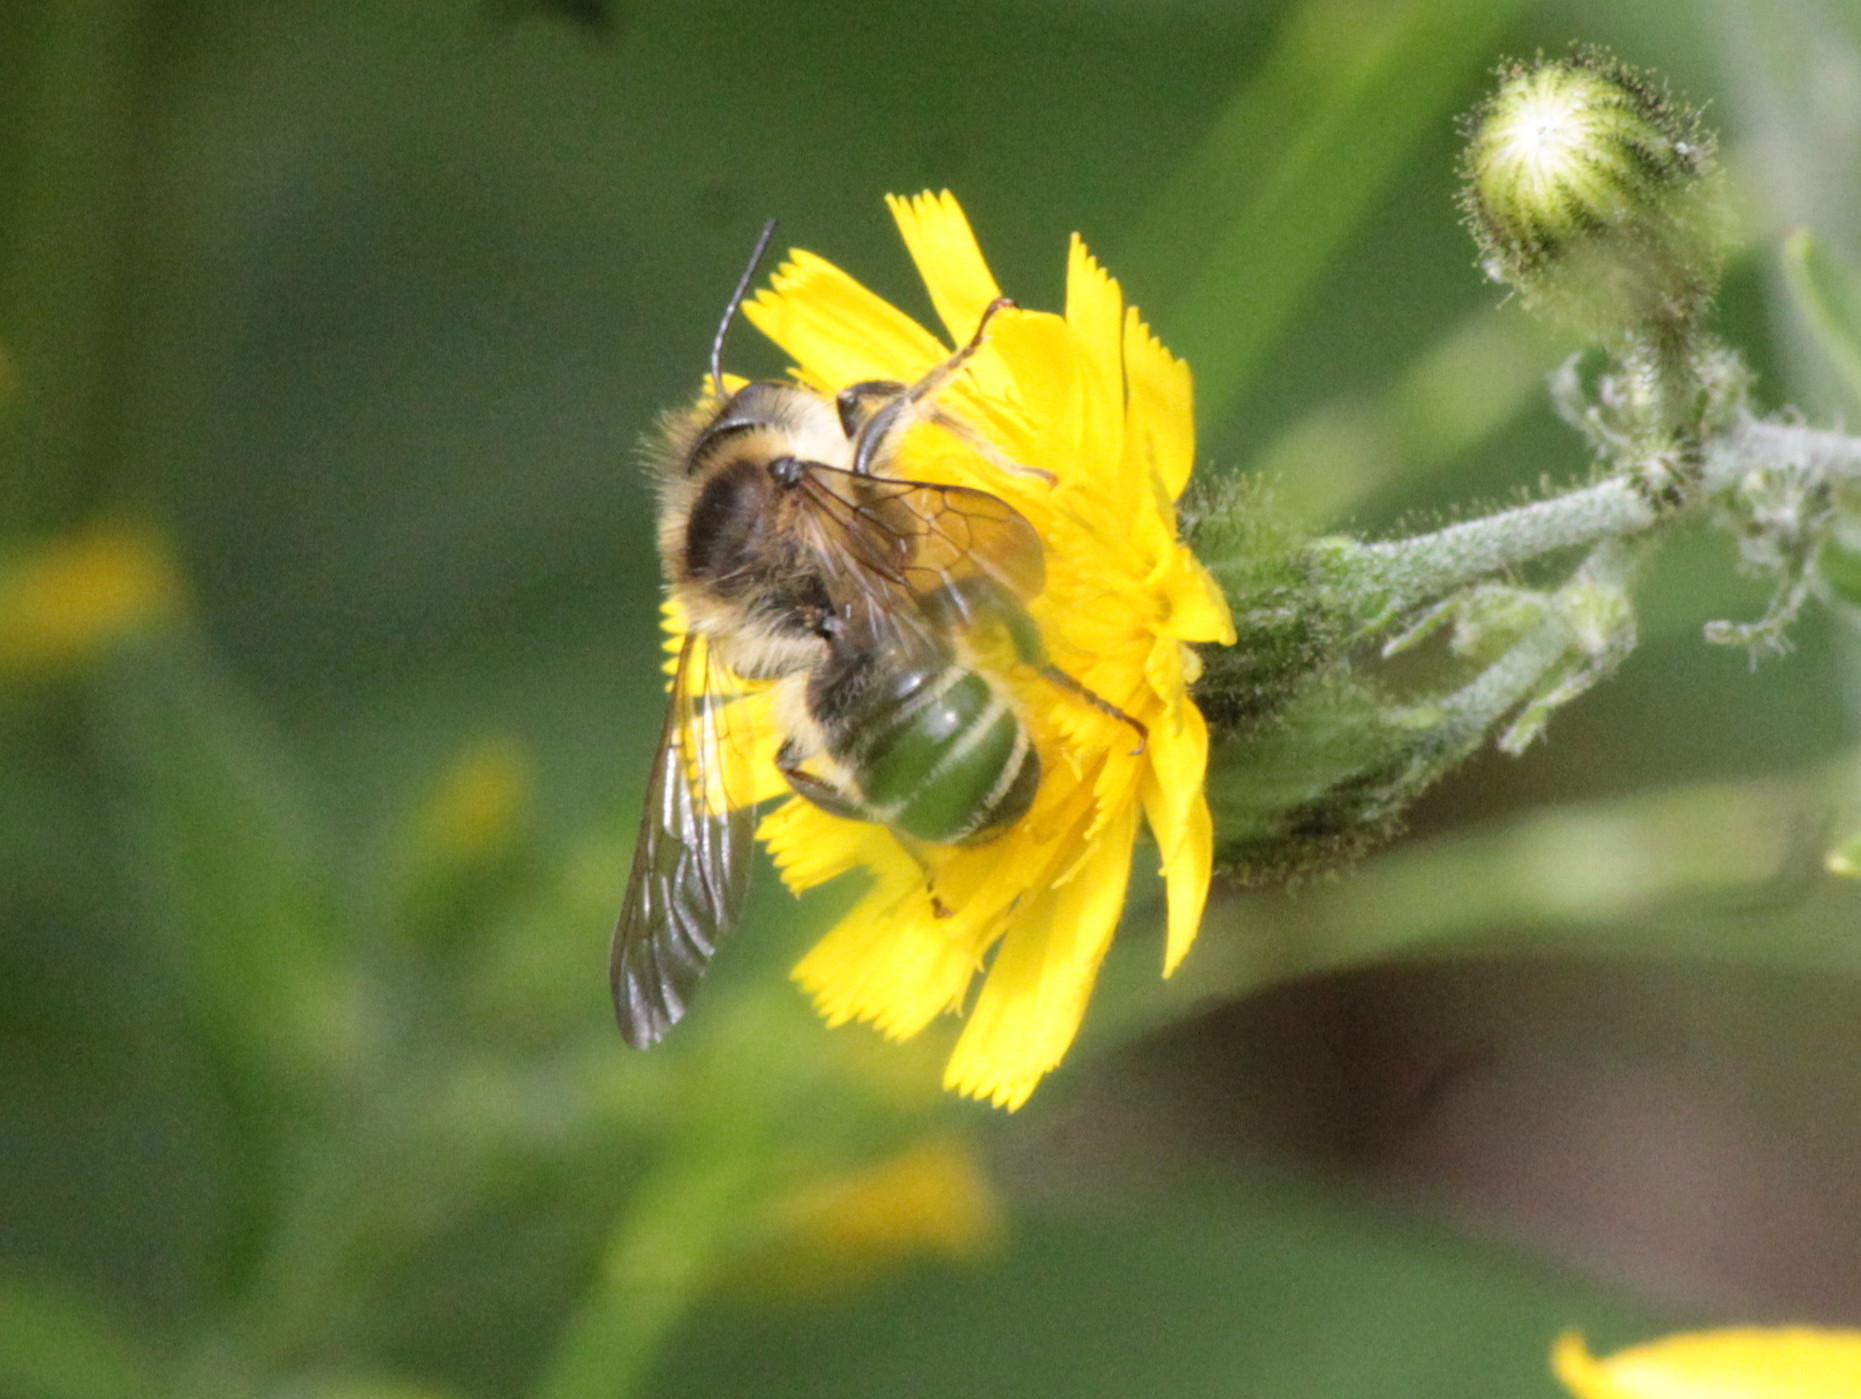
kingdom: Animalia
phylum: Arthropoda
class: Insecta
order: Hymenoptera
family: Megachilidae
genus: Megachile
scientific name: Megachile inermis
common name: Unarmed leafcutter bee
